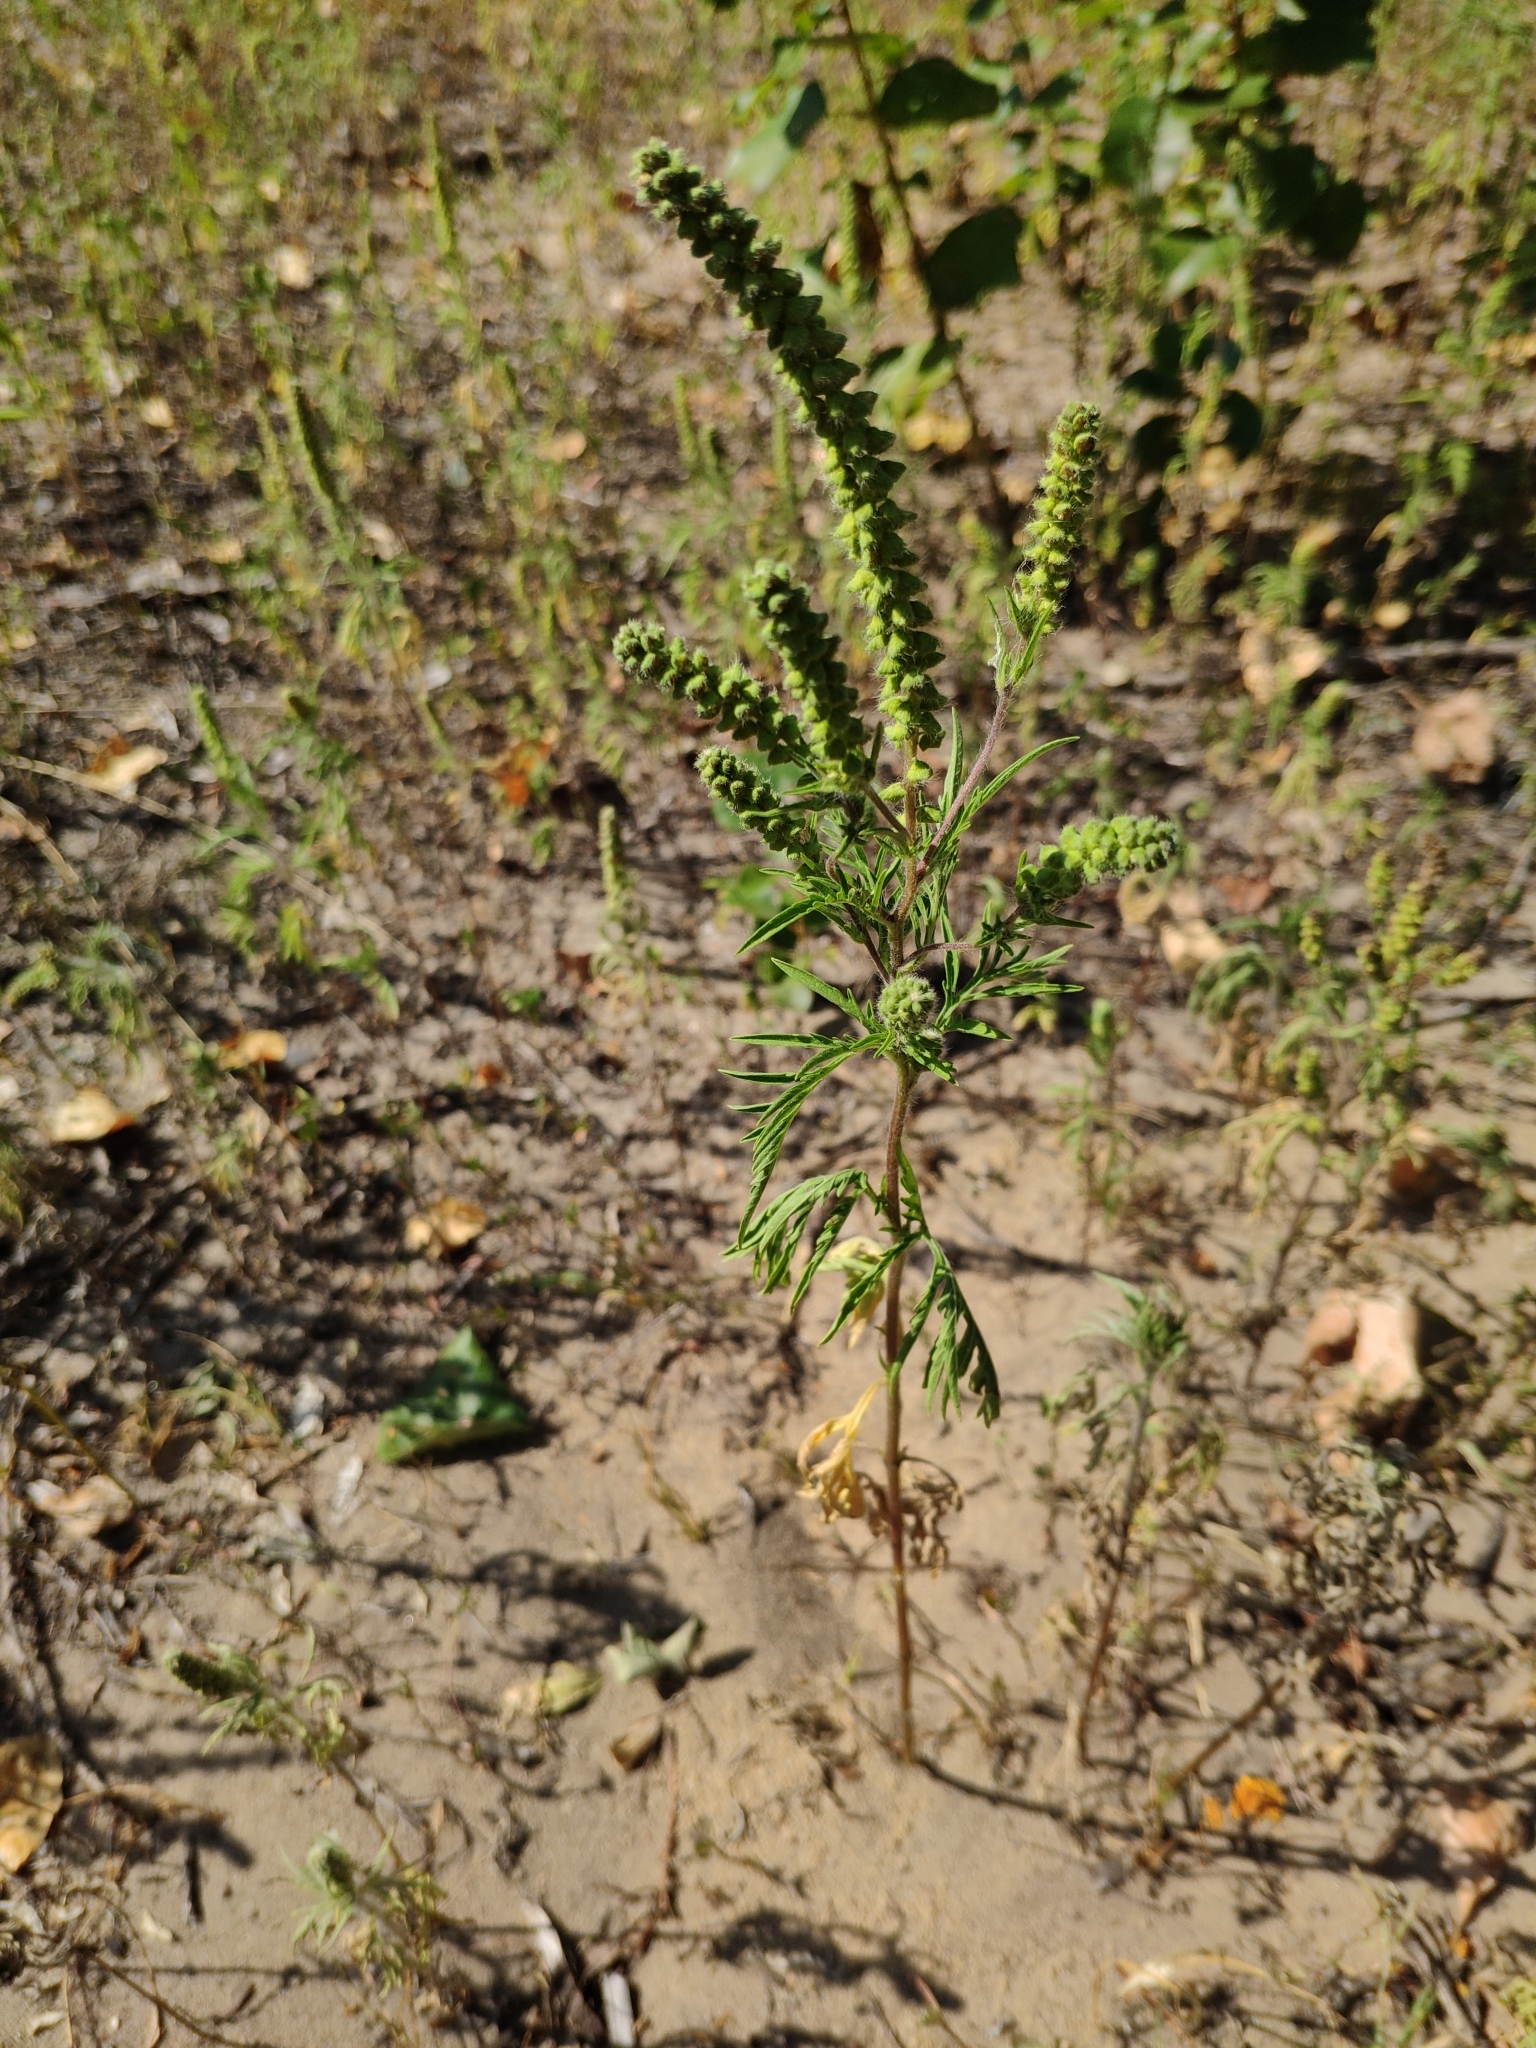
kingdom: Plantae
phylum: Tracheophyta
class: Magnoliopsida
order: Asterales
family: Asteraceae
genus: Ambrosia
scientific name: Ambrosia artemisiifolia
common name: Annual ragweed
